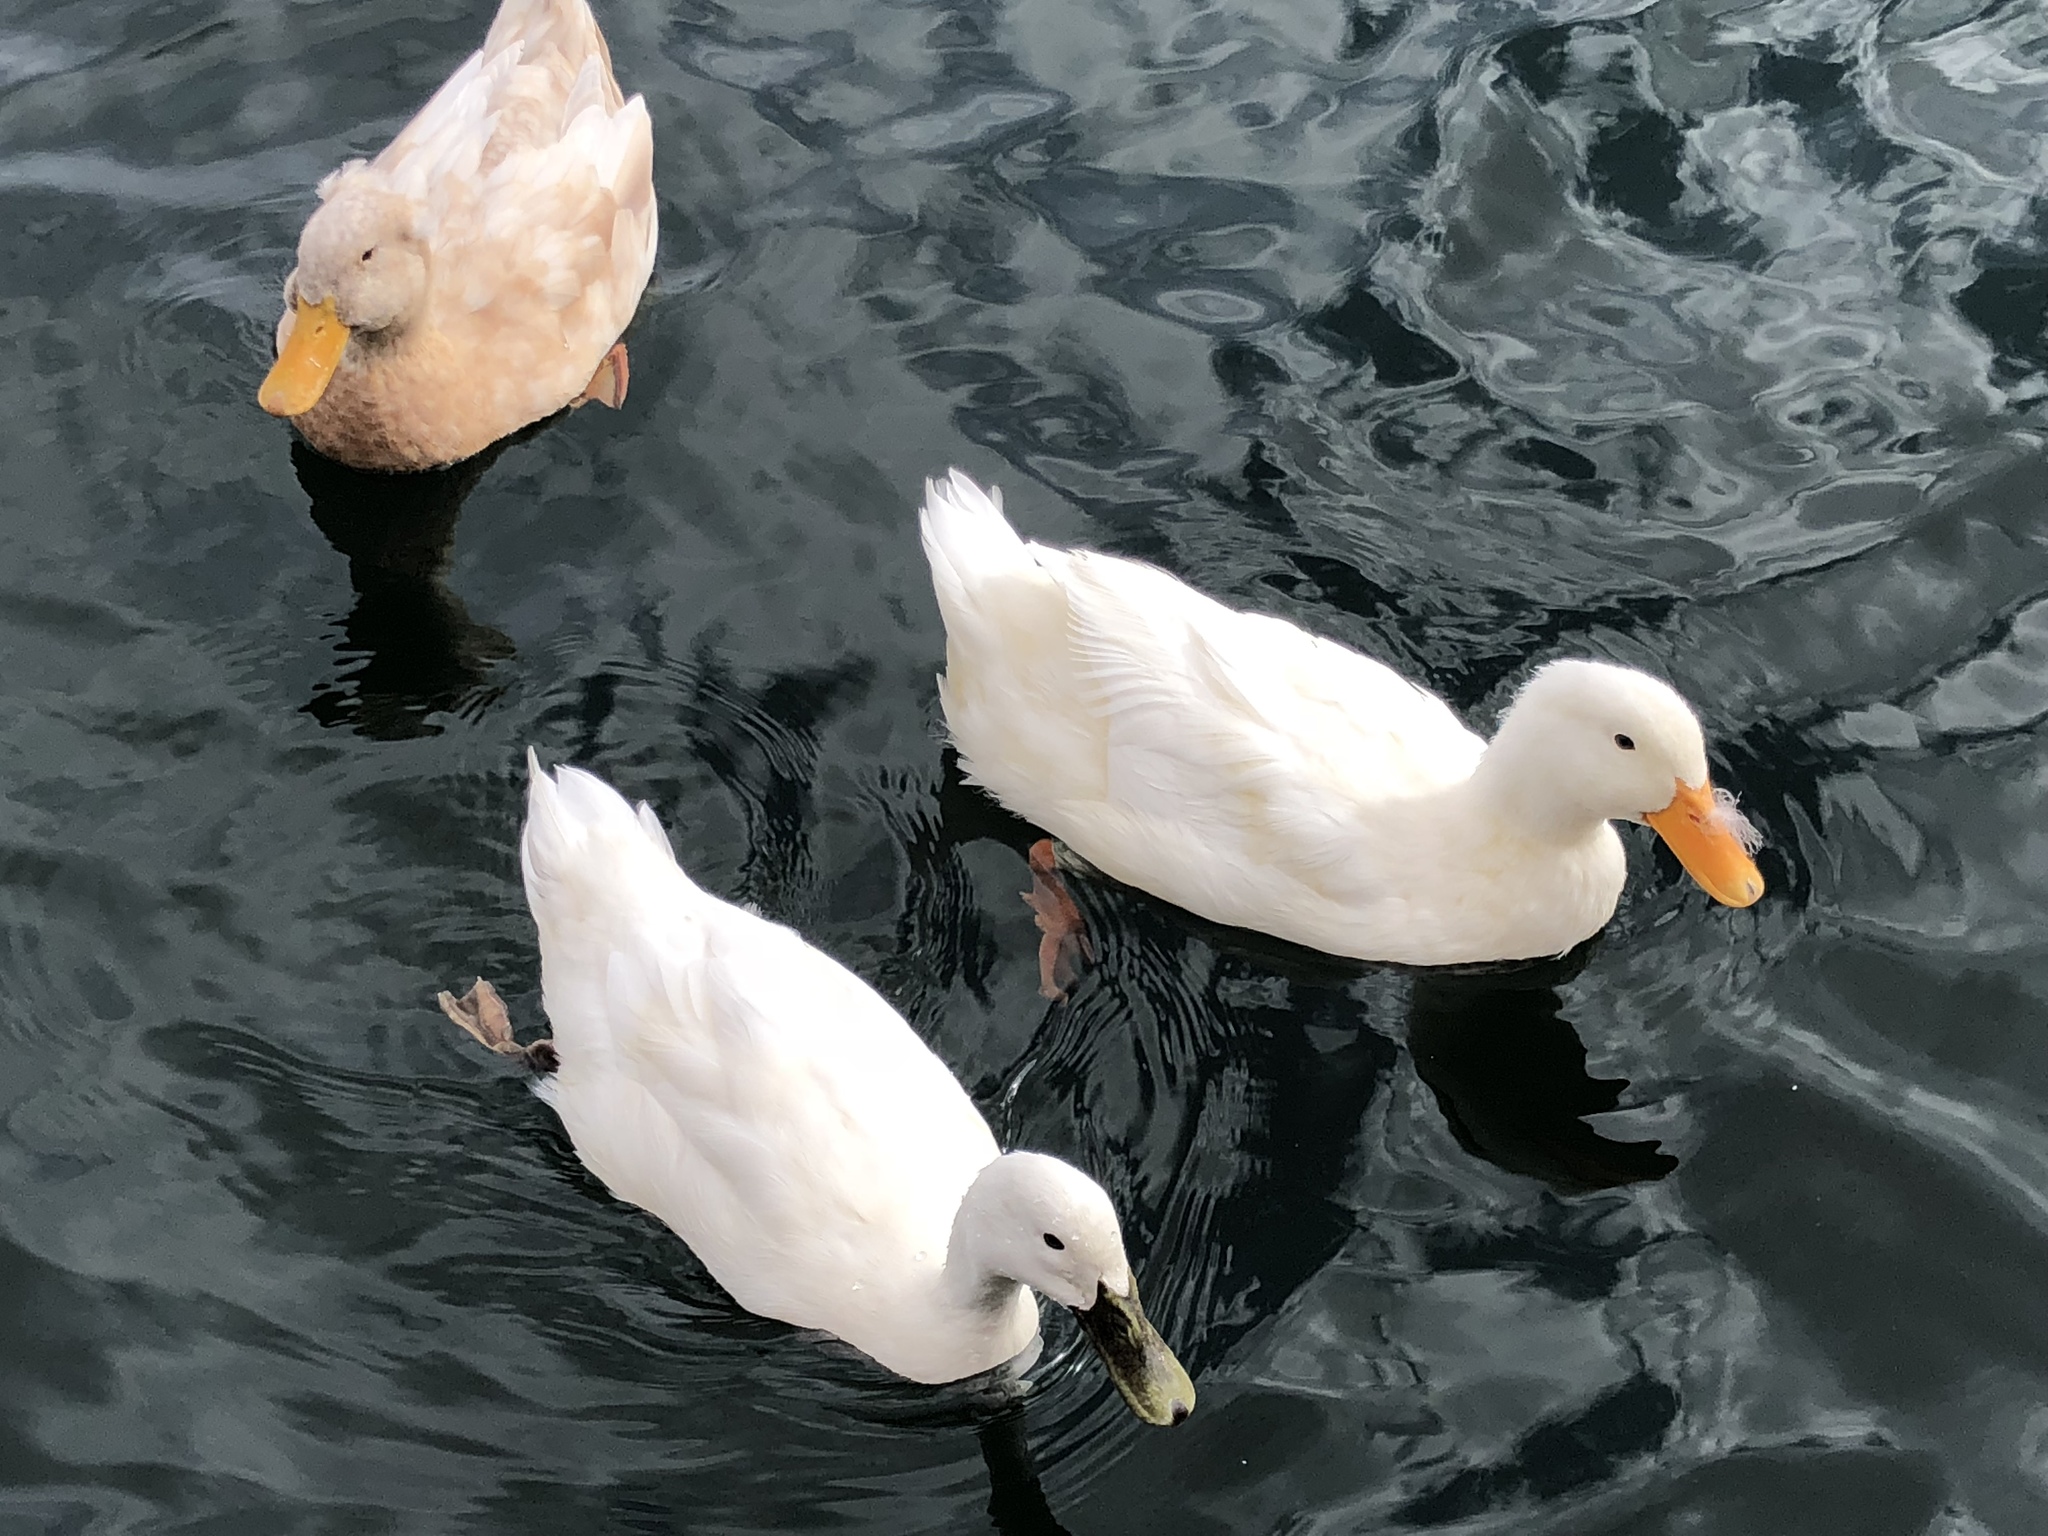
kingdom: Animalia
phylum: Chordata
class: Aves
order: Anseriformes
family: Anatidae
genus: Anas
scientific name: Anas platyrhynchos
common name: Mallard
